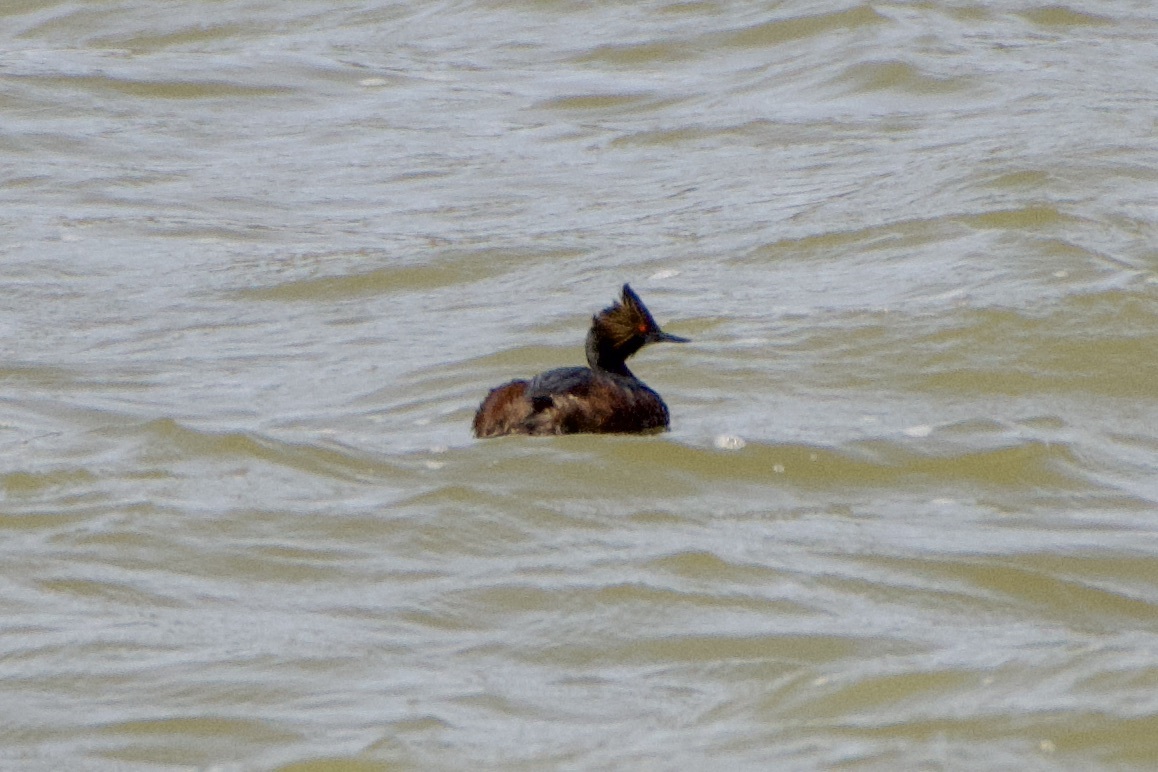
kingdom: Animalia
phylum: Chordata
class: Aves
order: Podicipediformes
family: Podicipedidae
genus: Podiceps
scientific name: Podiceps nigricollis
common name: Black-necked grebe
